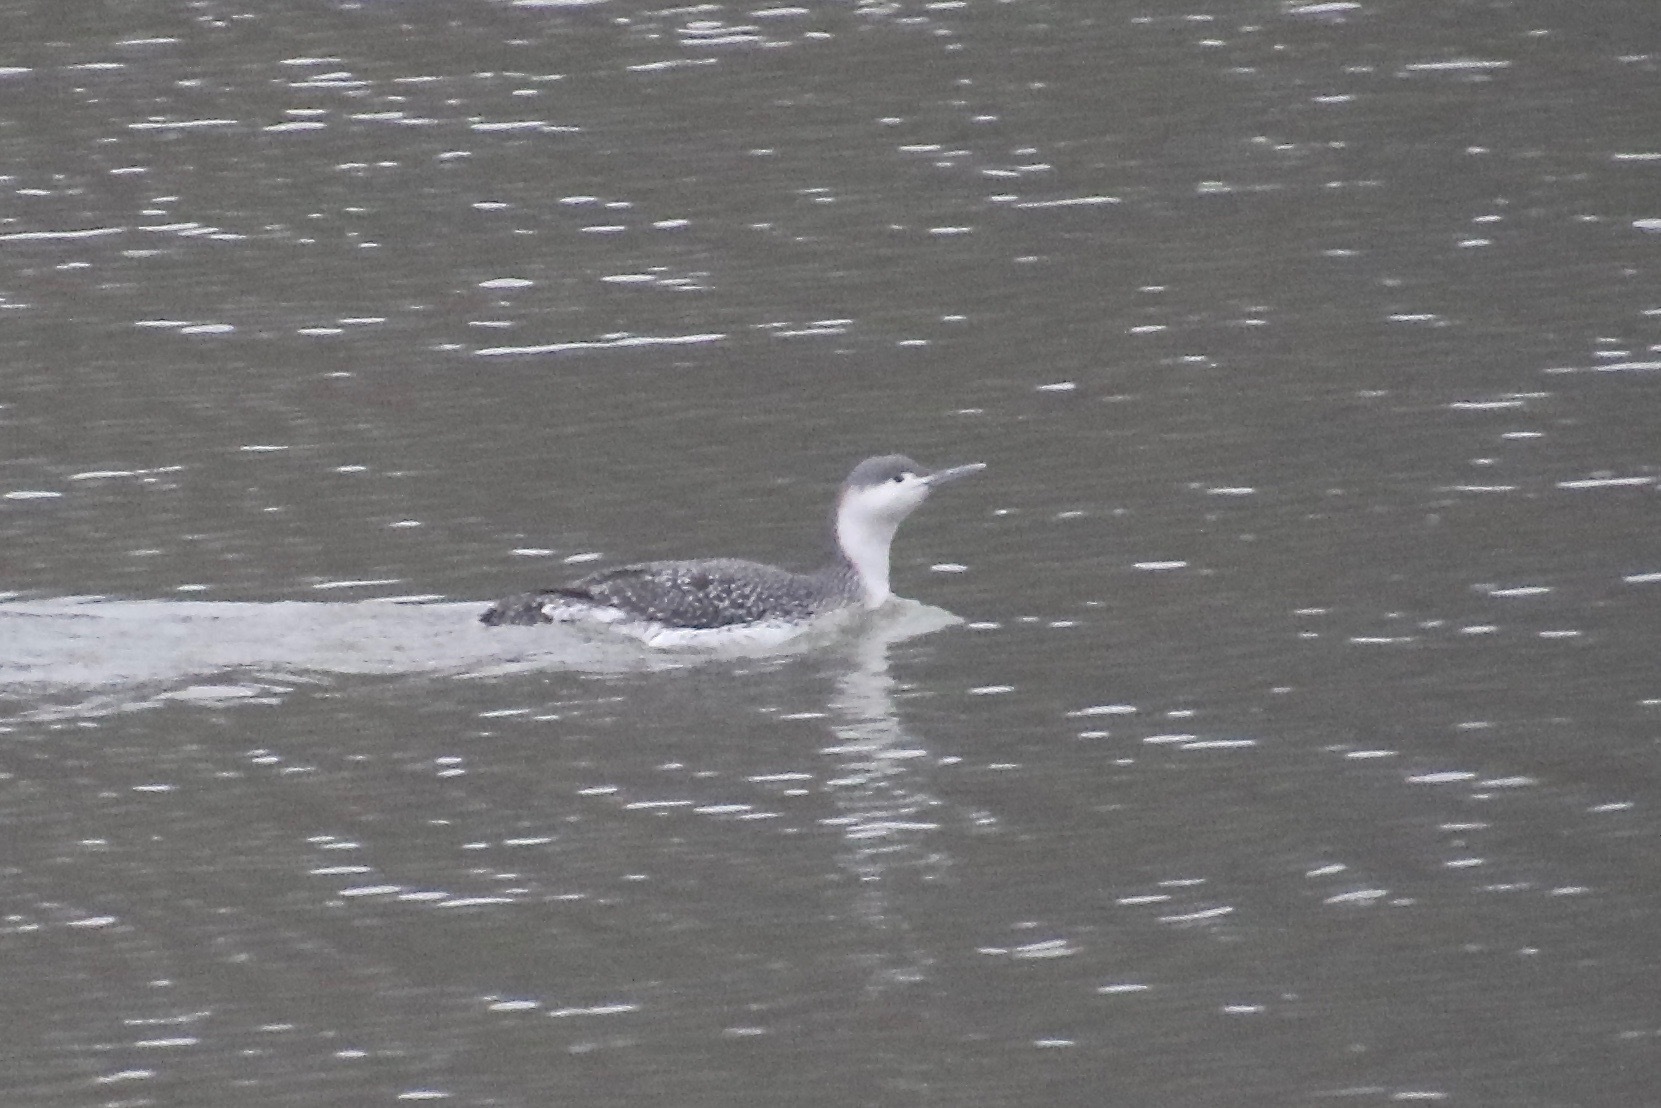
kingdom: Animalia
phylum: Chordata
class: Aves
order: Gaviiformes
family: Gaviidae
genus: Gavia
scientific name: Gavia stellata
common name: Red-throated loon
